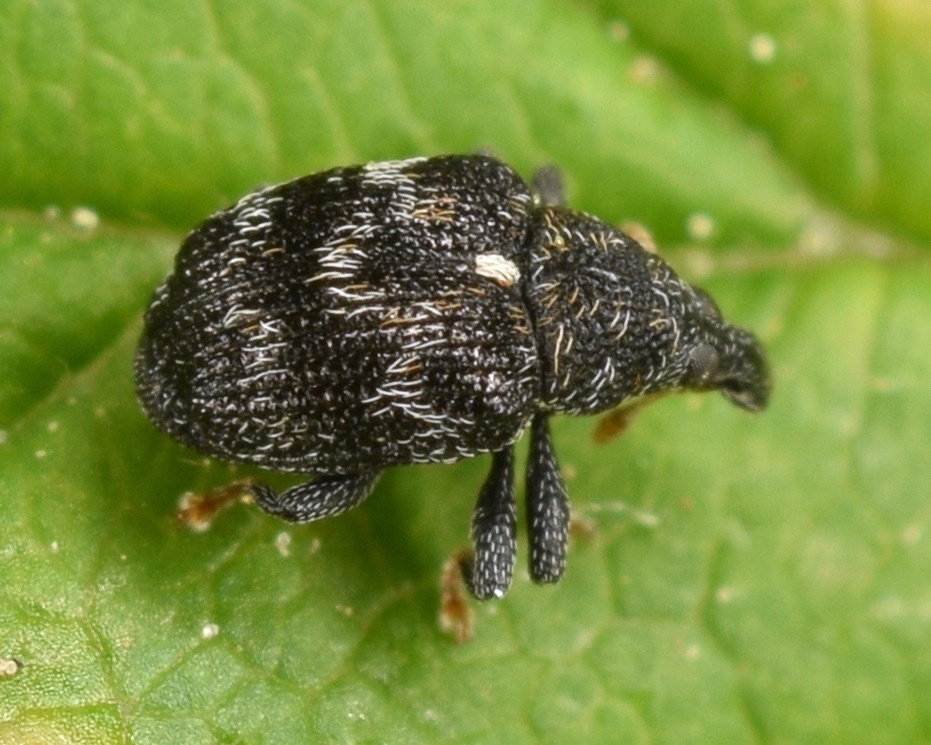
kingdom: Animalia
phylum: Arthropoda
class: Insecta
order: Coleoptera
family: Curculionidae
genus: Piazorhinus
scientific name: Piazorhinus scutellaris
